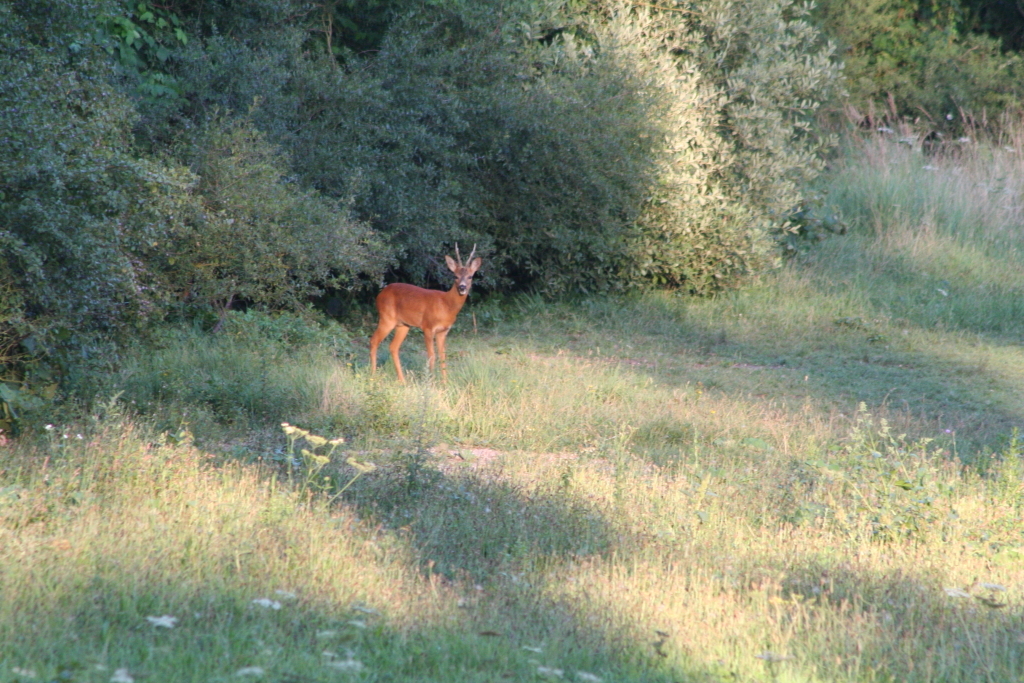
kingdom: Animalia
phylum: Chordata
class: Mammalia
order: Artiodactyla
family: Cervidae
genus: Capreolus
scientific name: Capreolus capreolus
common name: Western roe deer
